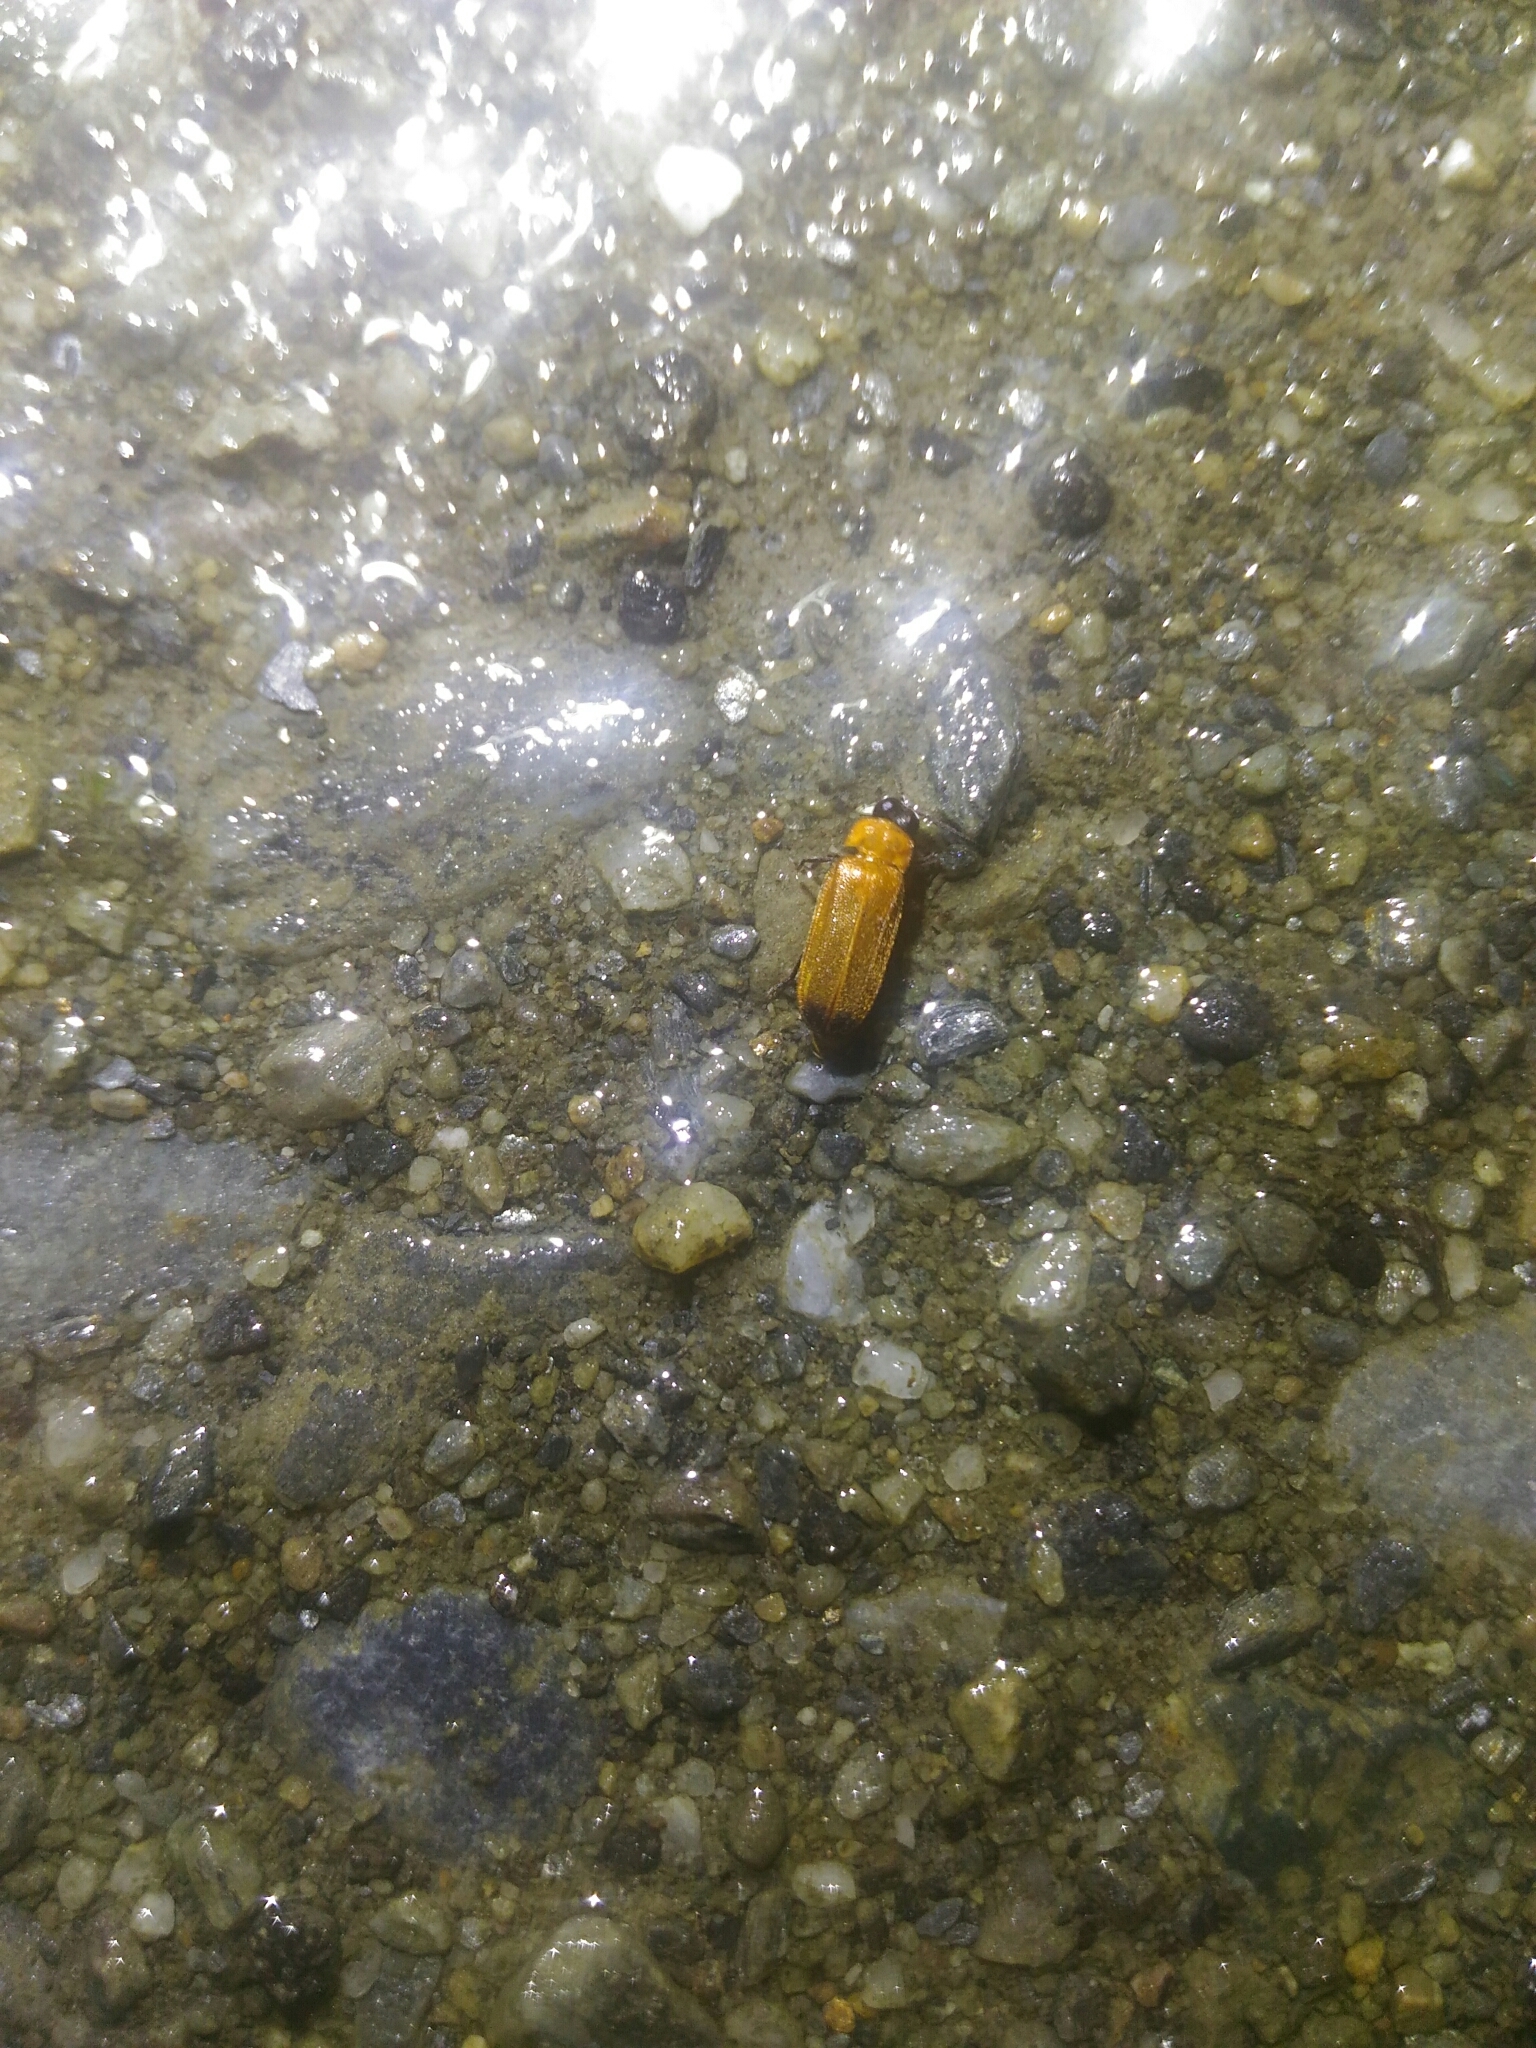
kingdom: Animalia
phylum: Arthropoda
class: Insecta
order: Coleoptera
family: Lampyridae
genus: Curtos
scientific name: Curtos costipennis
